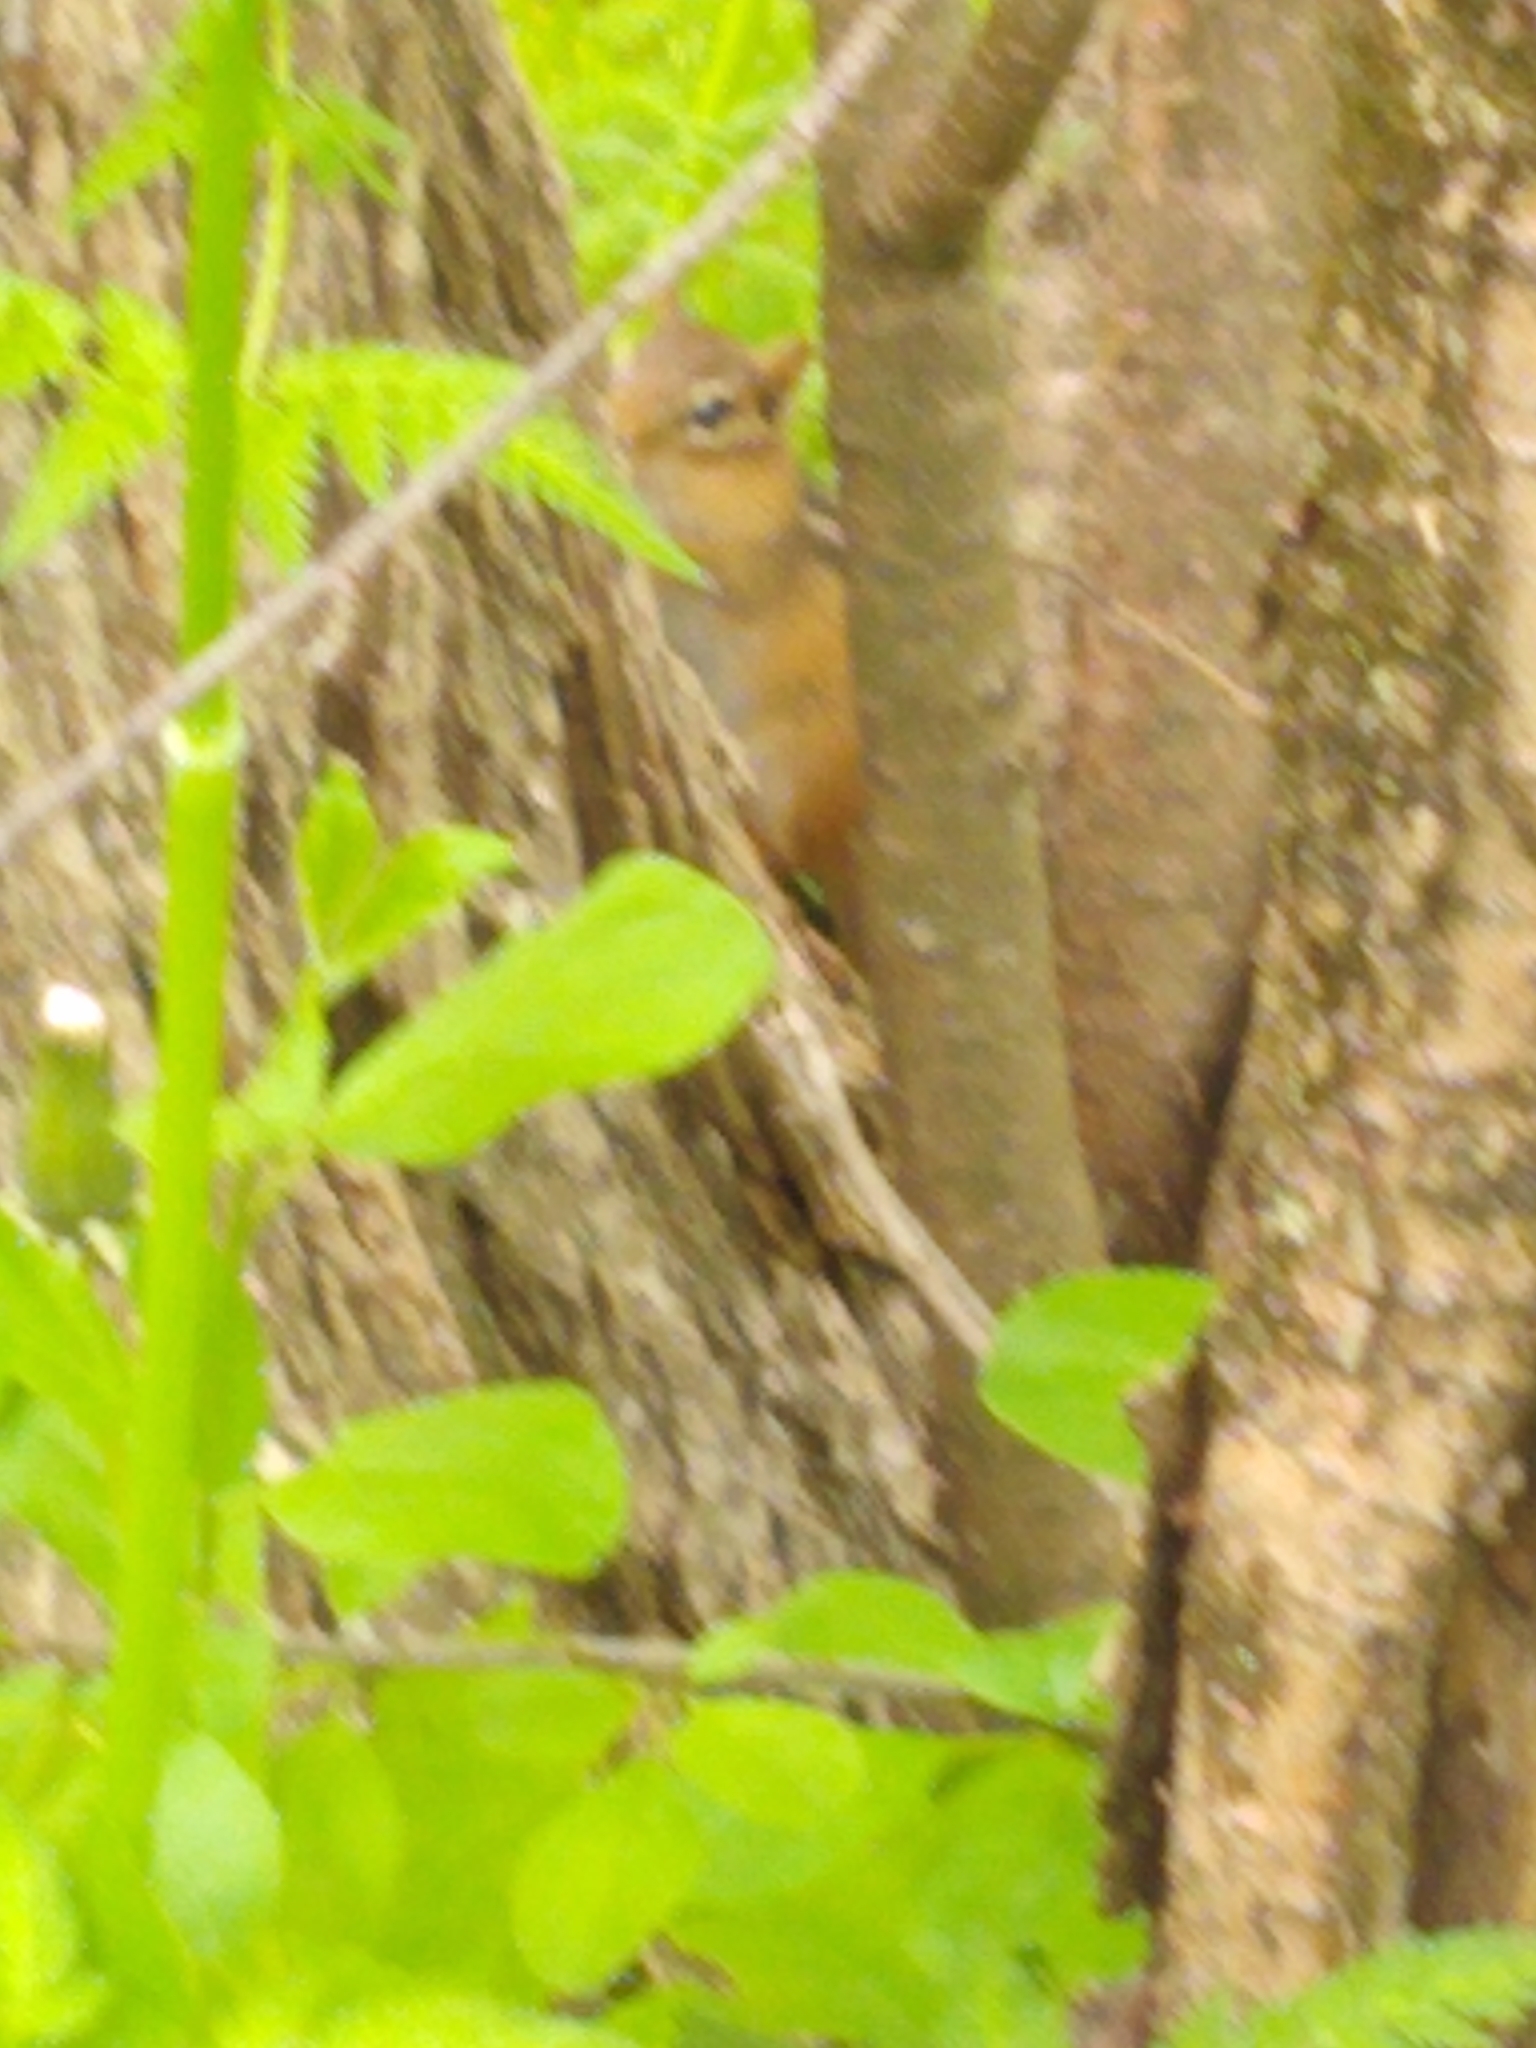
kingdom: Animalia
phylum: Chordata
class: Mammalia
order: Rodentia
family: Sciuridae
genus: Tamias
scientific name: Tamias striatus
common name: Eastern chipmunk
